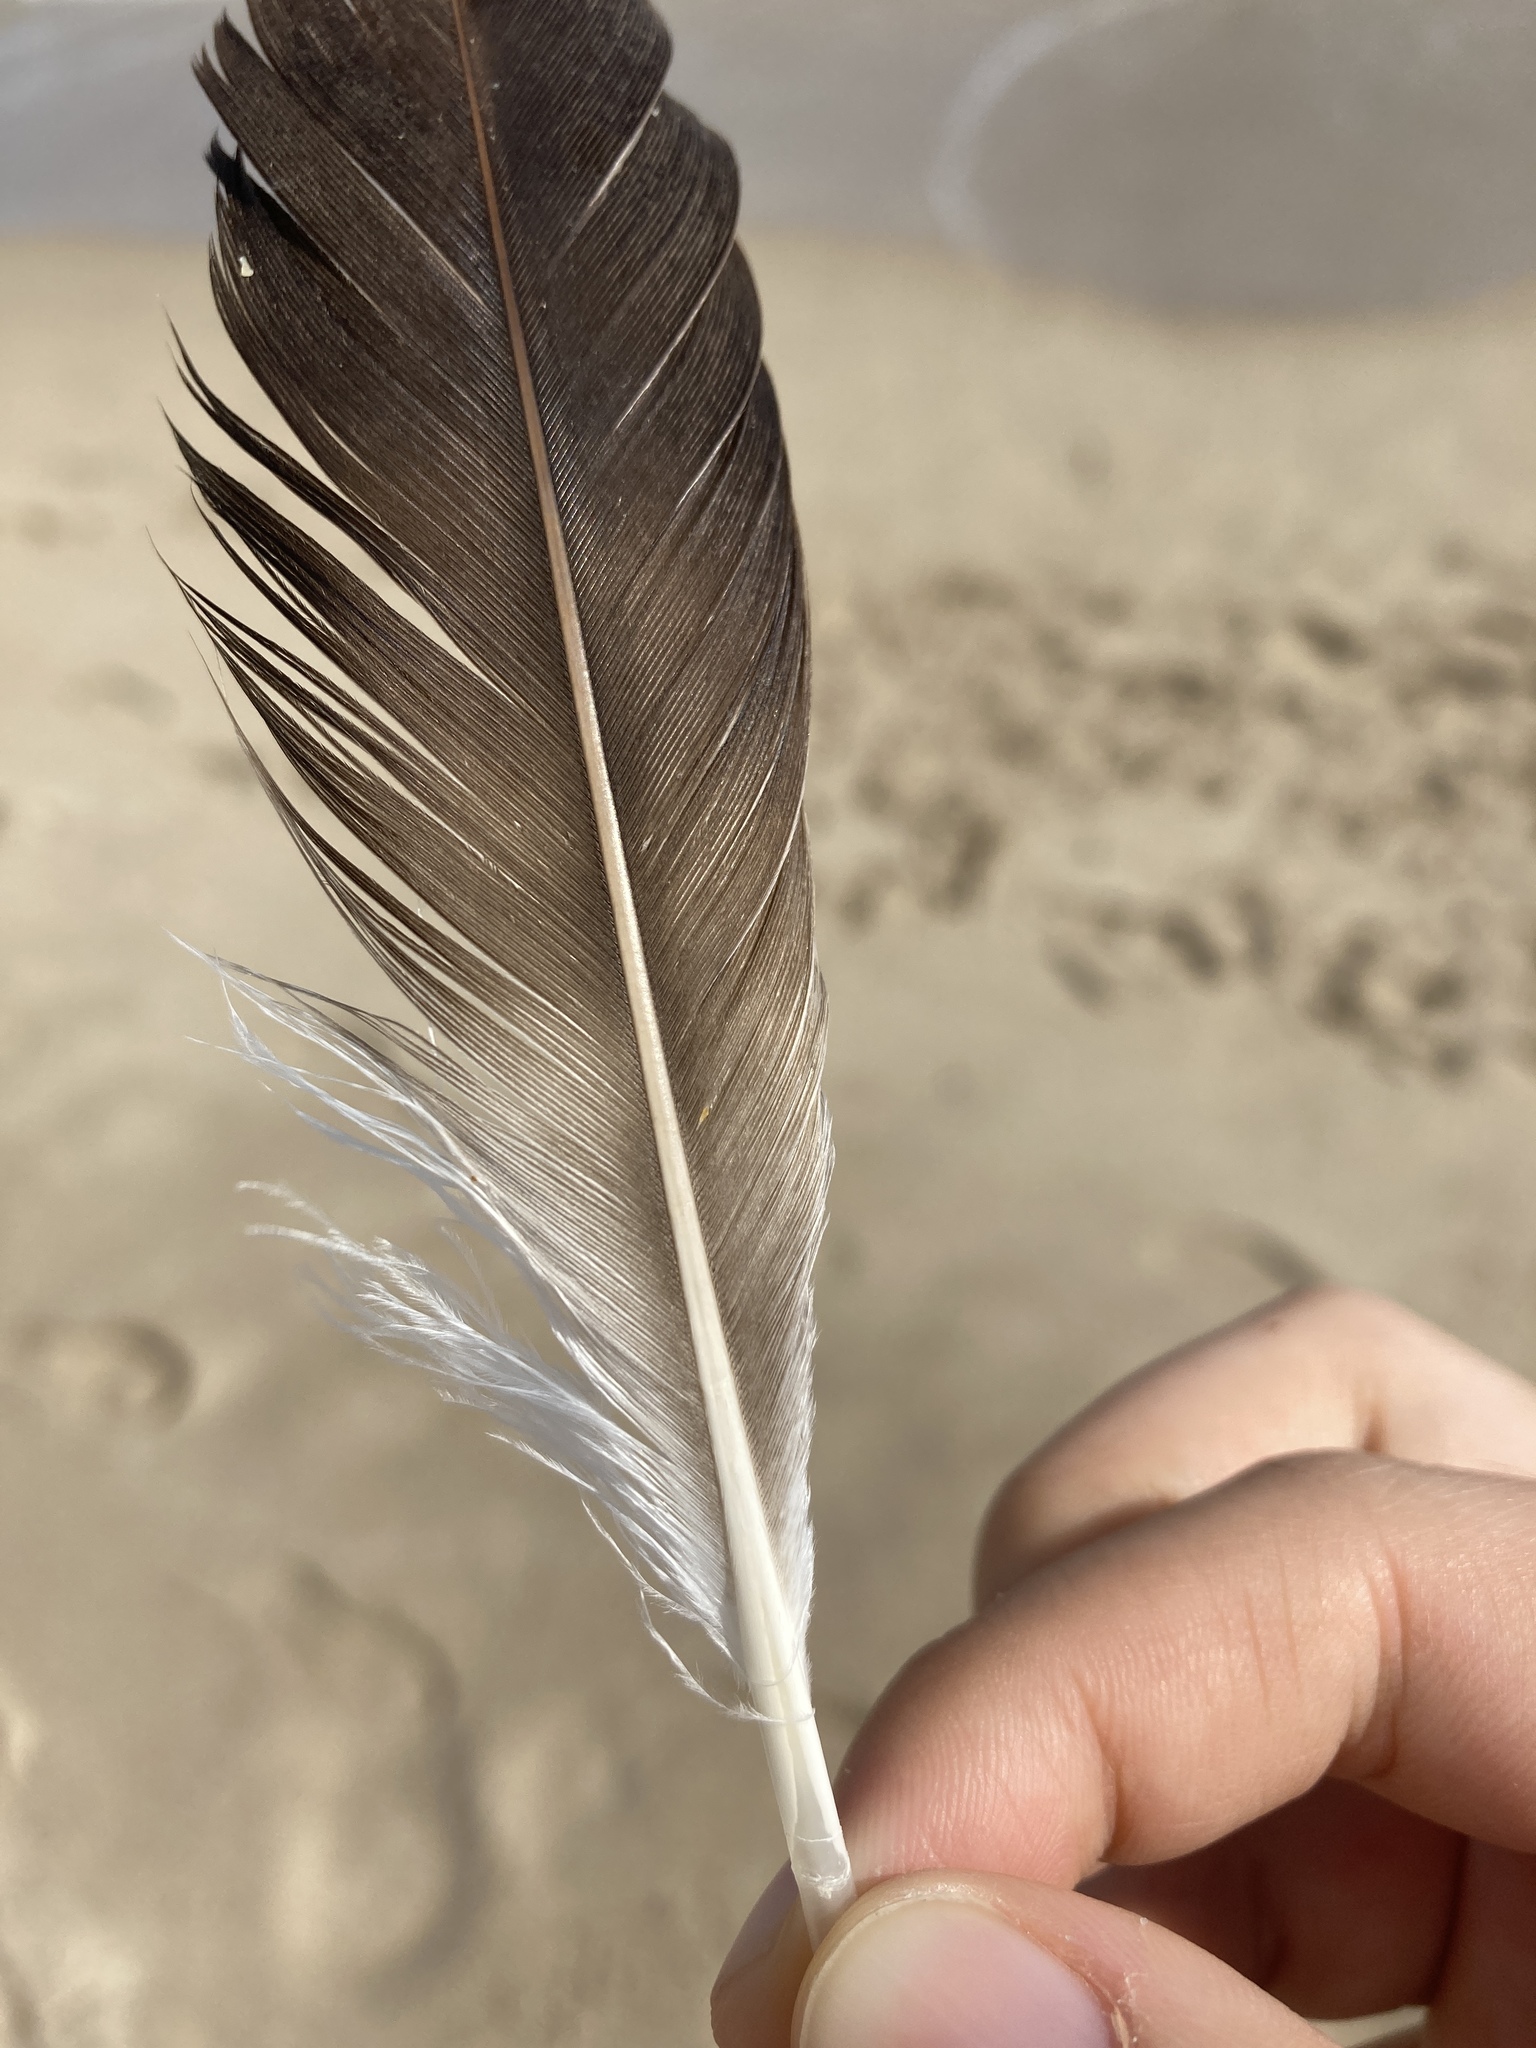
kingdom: Animalia
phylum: Chordata
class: Aves
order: Accipitriformes
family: Pandionidae
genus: Pandion
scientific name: Pandion haliaetus
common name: Osprey
